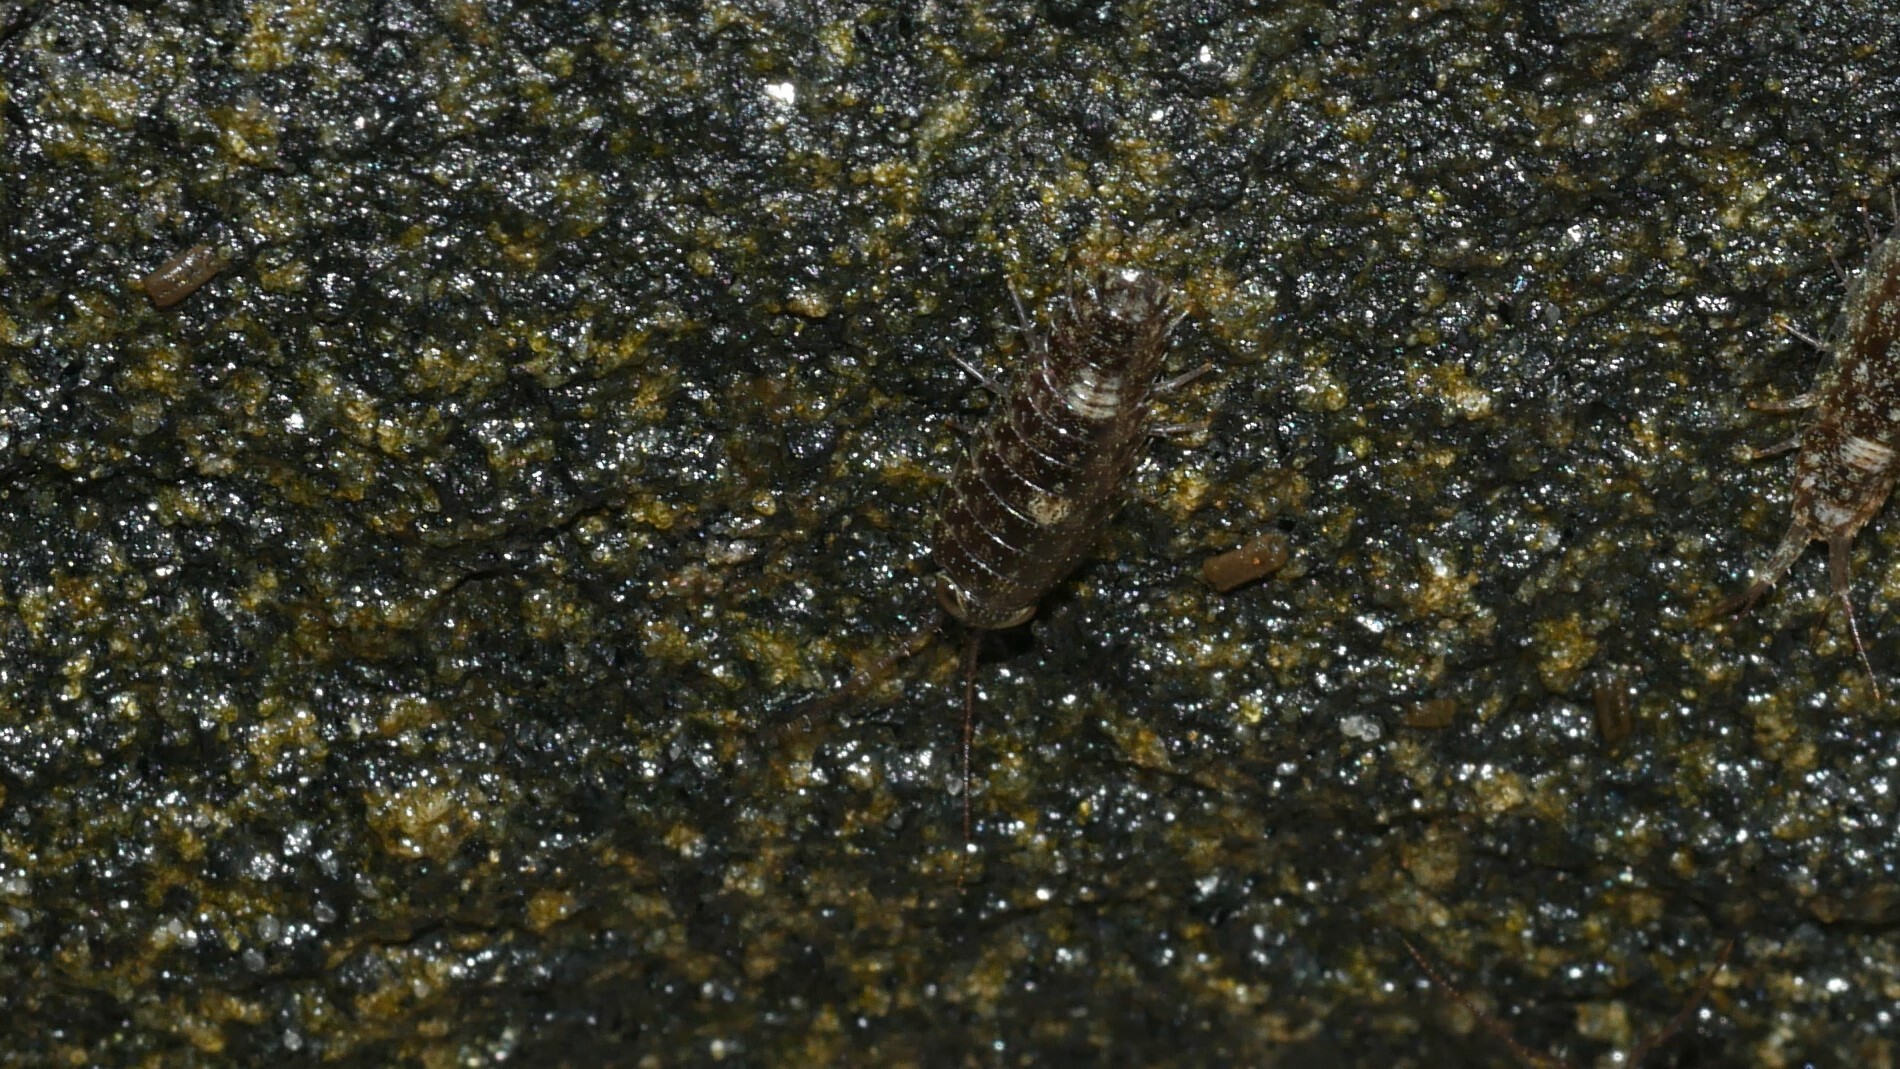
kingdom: Animalia
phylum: Arthropoda
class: Malacostraca
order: Isopoda
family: Ligiidae
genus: Ligia
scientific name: Ligia exotica
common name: Wharf roach
